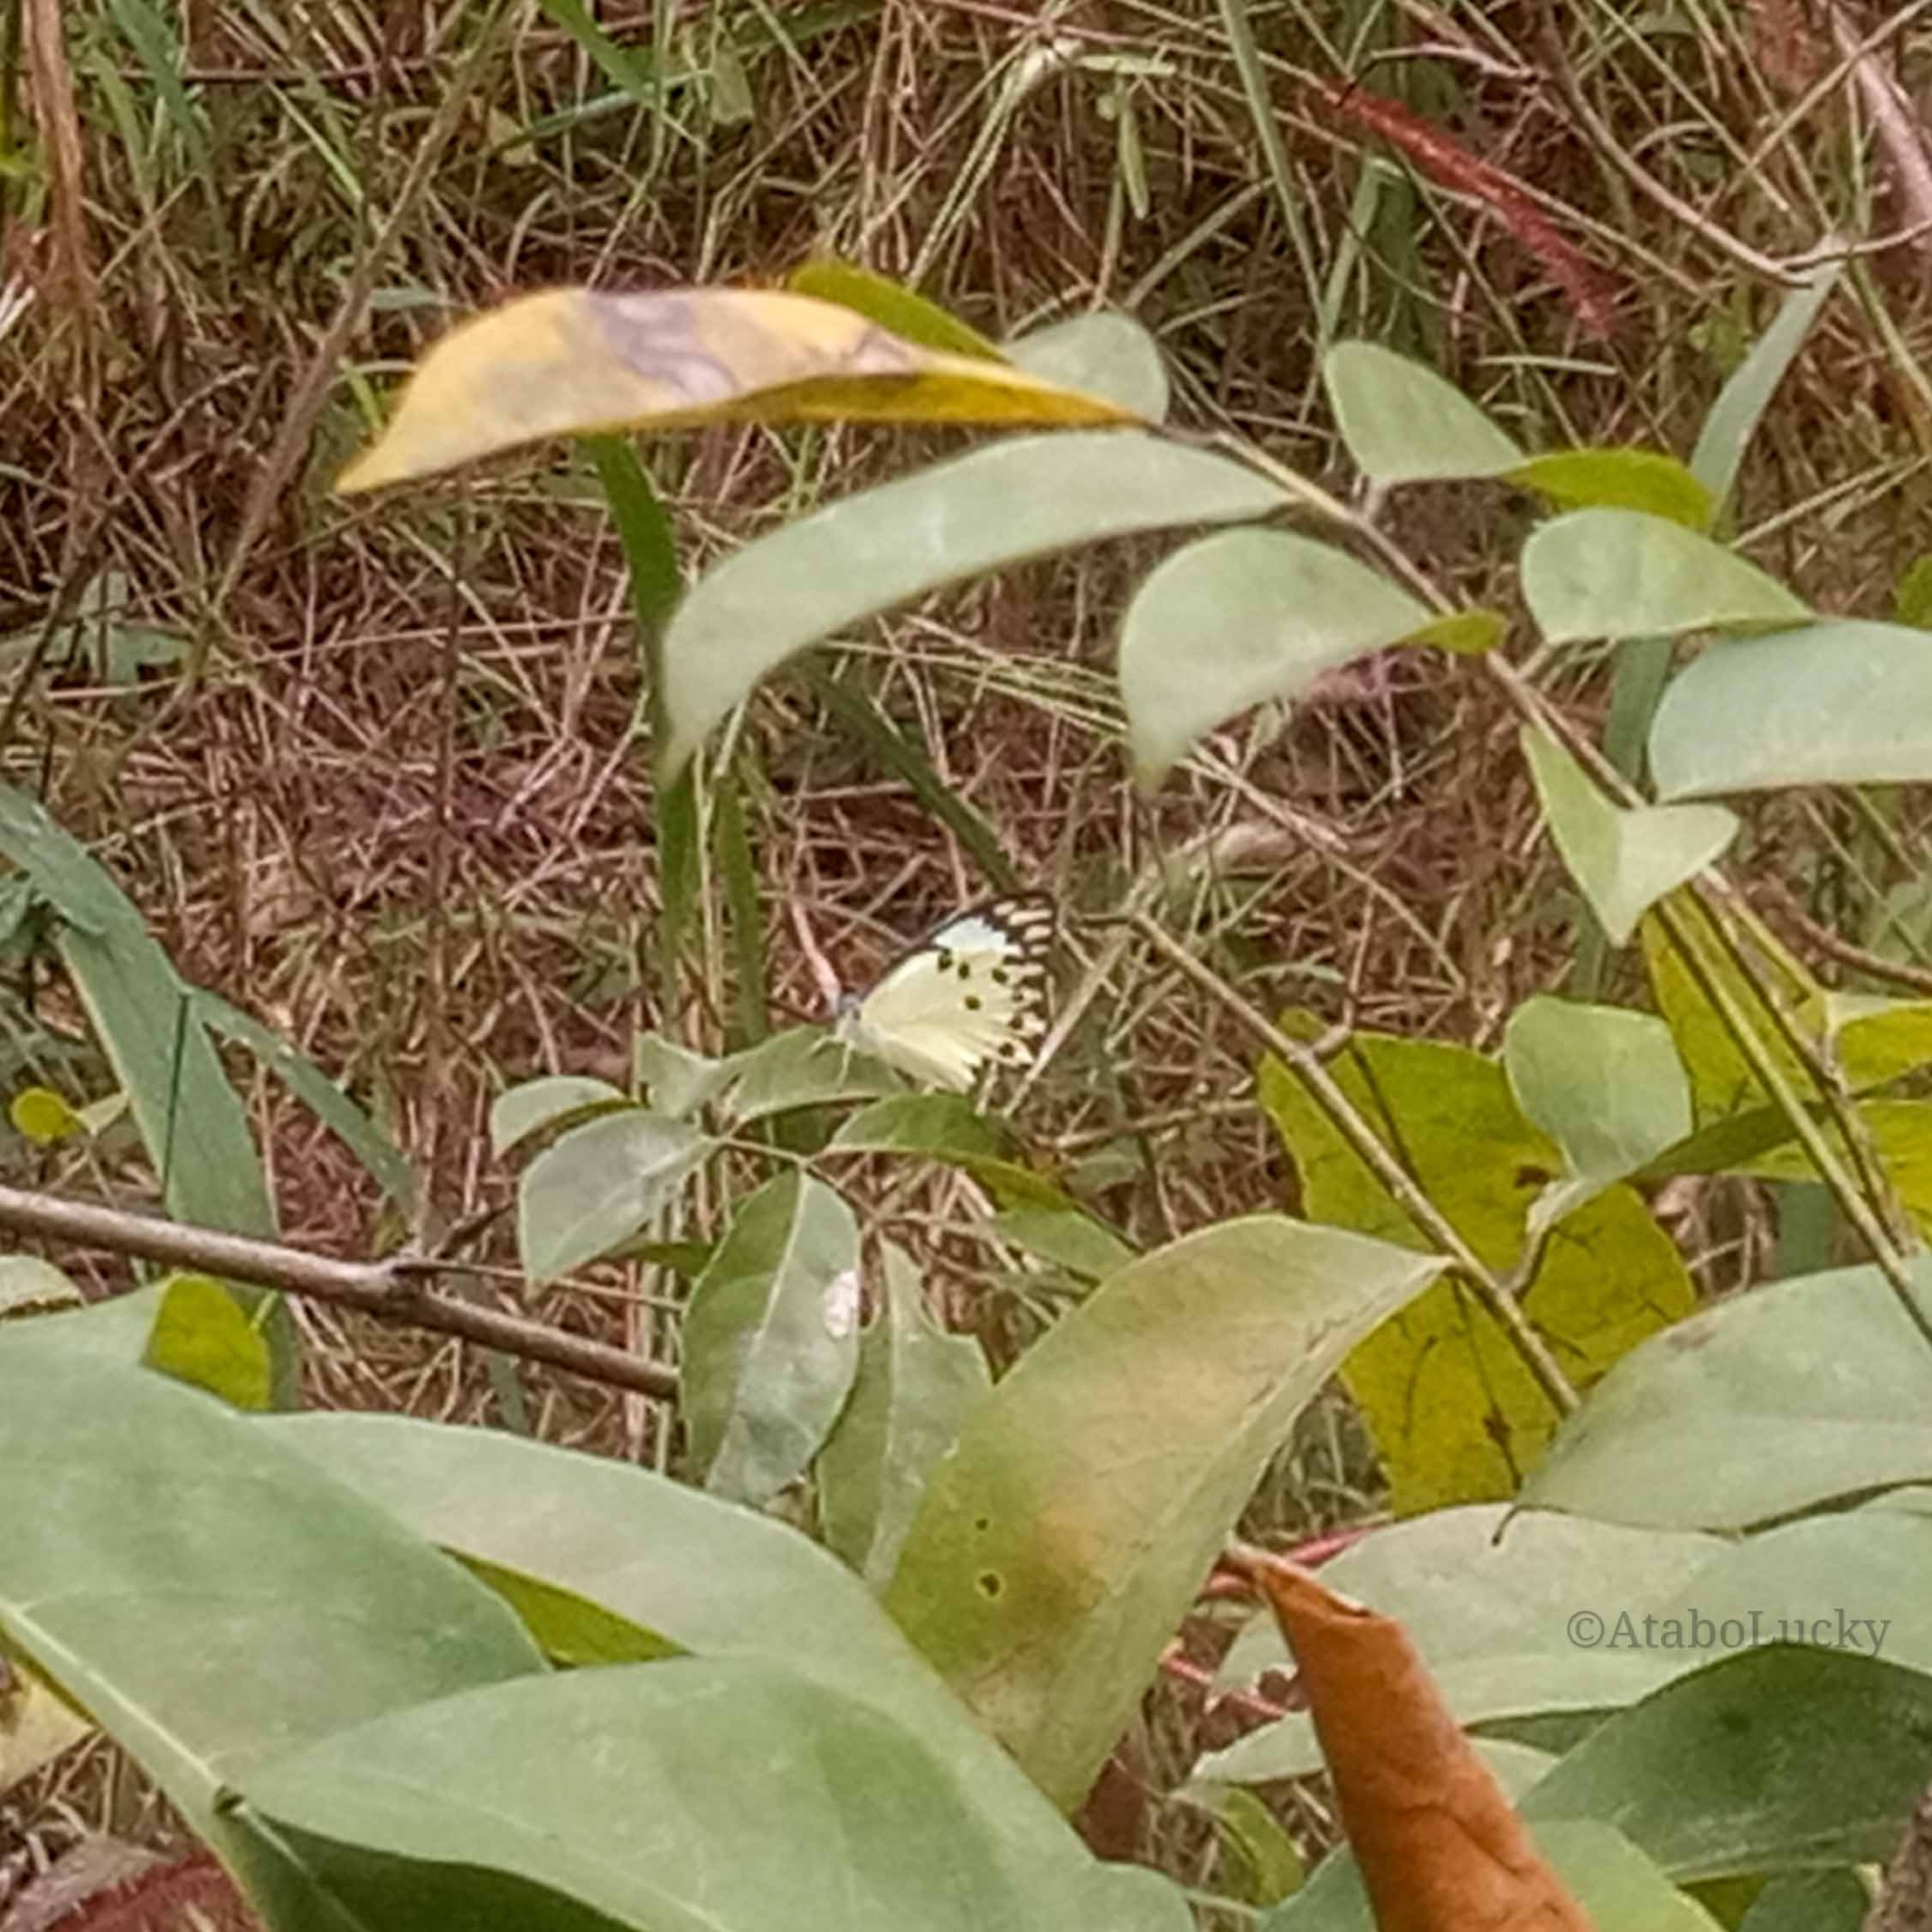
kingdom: Animalia
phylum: Arthropoda
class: Insecta
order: Lepidoptera
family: Pieridae
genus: Belenois
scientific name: Belenois calypso
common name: Calypso caper white
